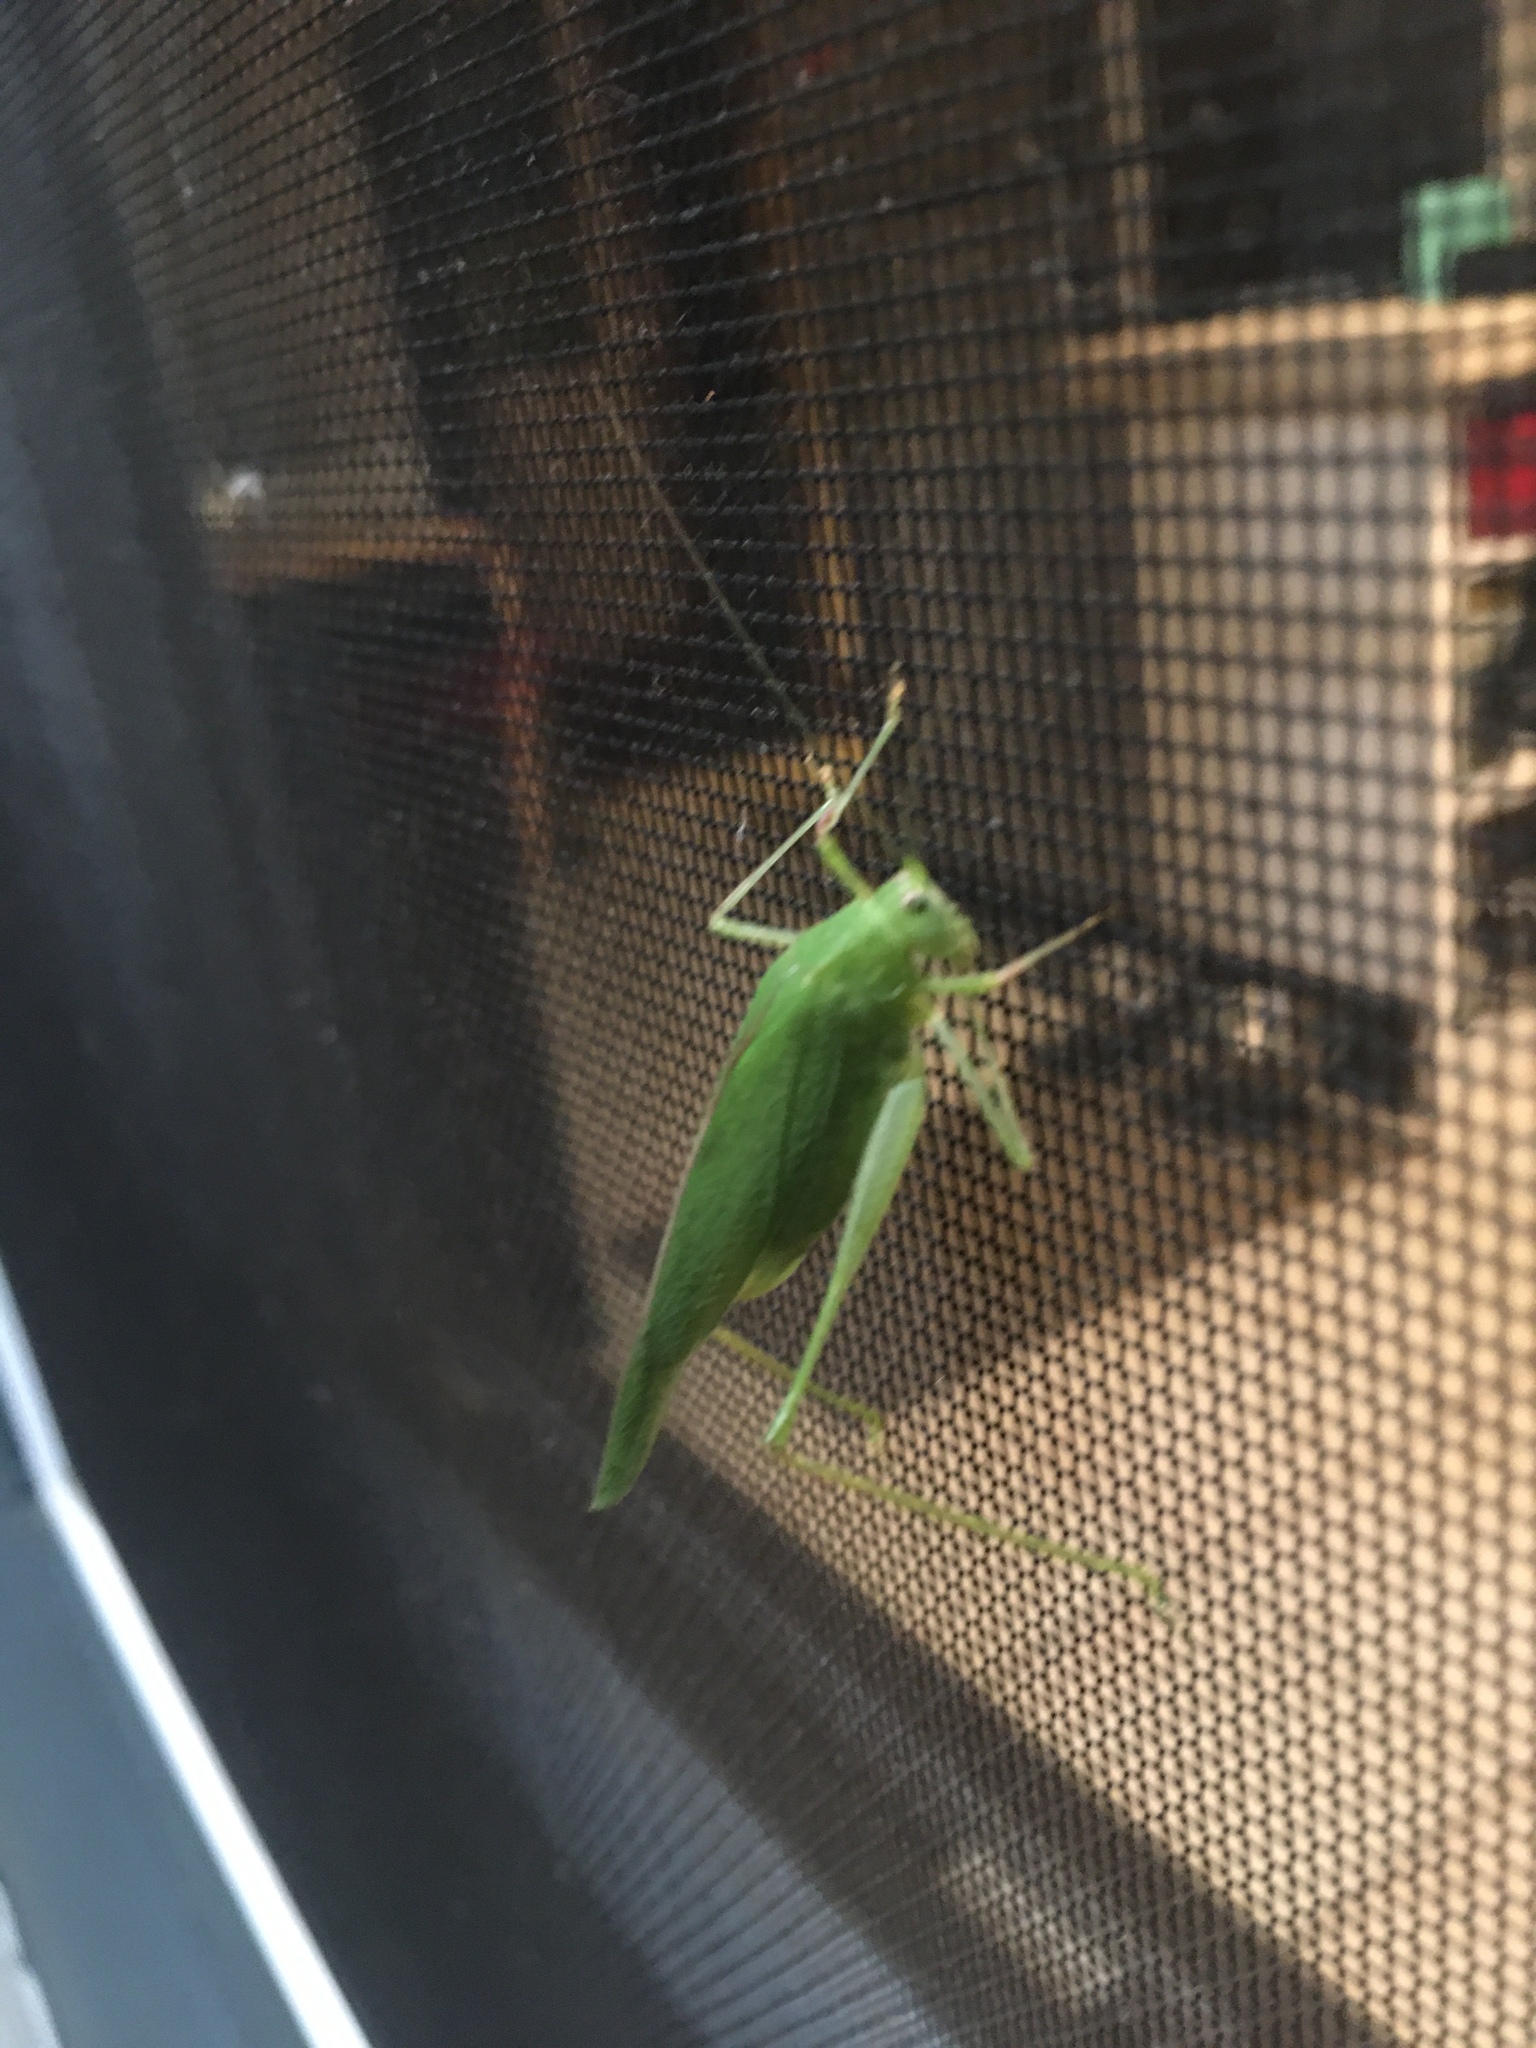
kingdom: Animalia
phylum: Arthropoda
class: Insecta
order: Orthoptera
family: Tettigoniidae
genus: Phaneroptera
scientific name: Phaneroptera nana
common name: Southern sickle bush-cricket
